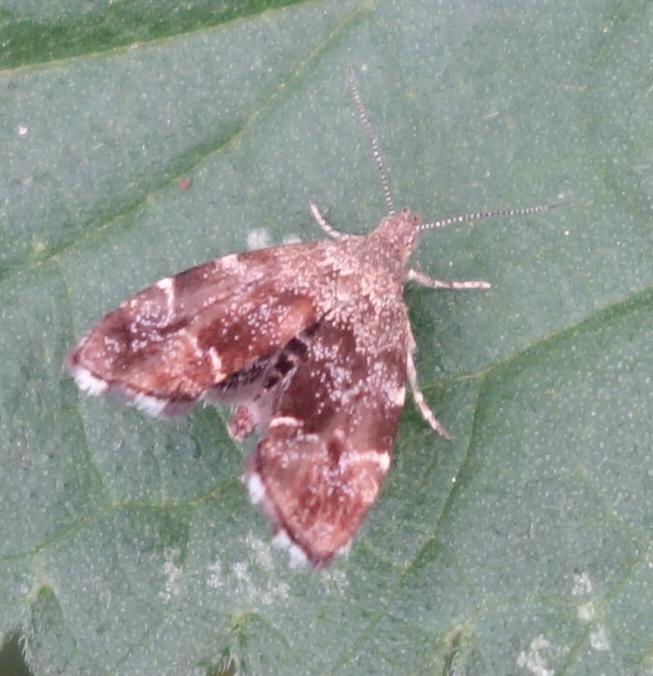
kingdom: Animalia
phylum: Arthropoda
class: Insecta
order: Lepidoptera
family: Choreutidae
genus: Anthophila
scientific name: Anthophila fabriciana
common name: Nettle-tap
